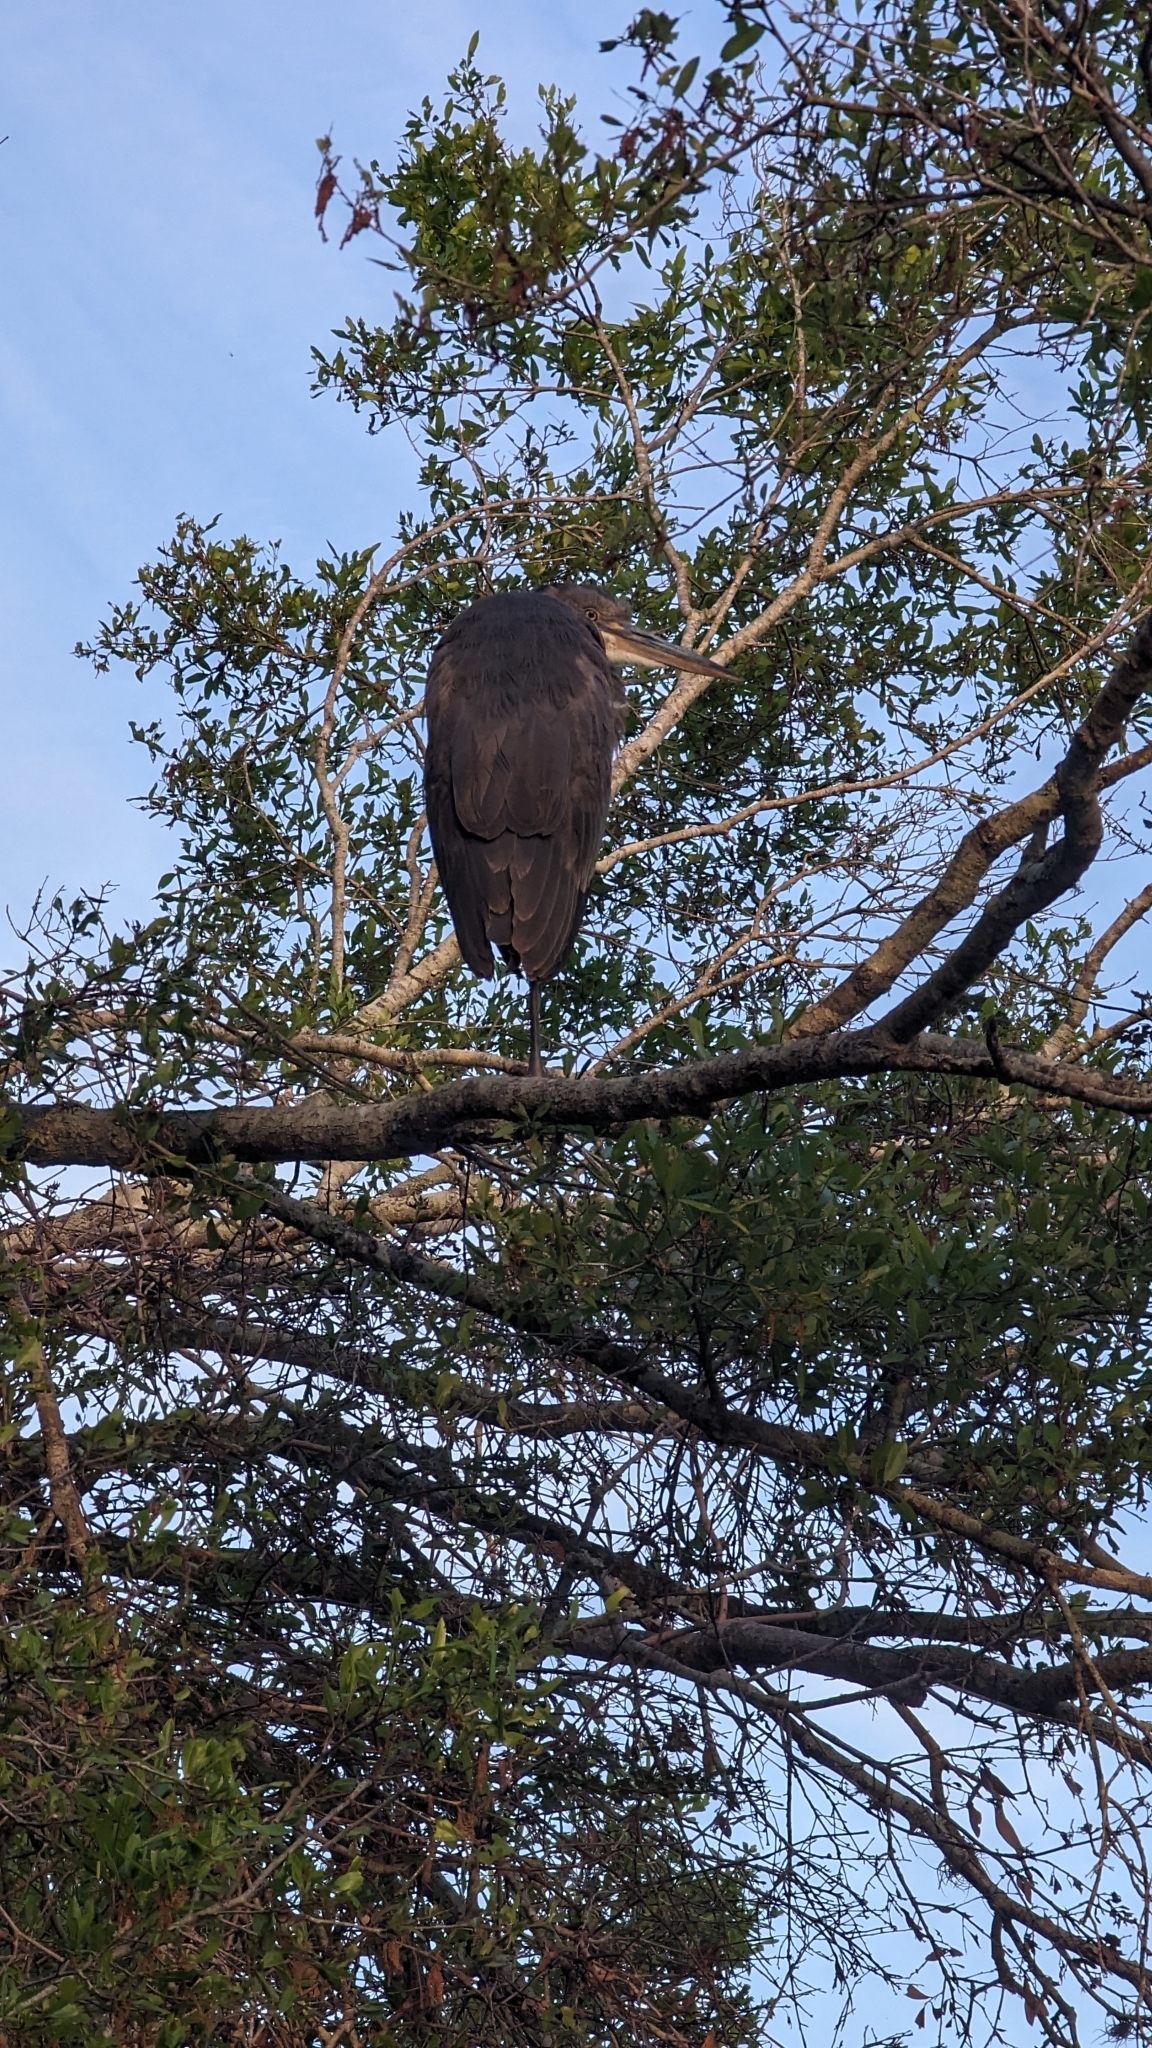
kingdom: Animalia
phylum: Chordata
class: Aves
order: Pelecaniformes
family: Ardeidae
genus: Ardea
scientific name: Ardea herodias
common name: Great blue heron
